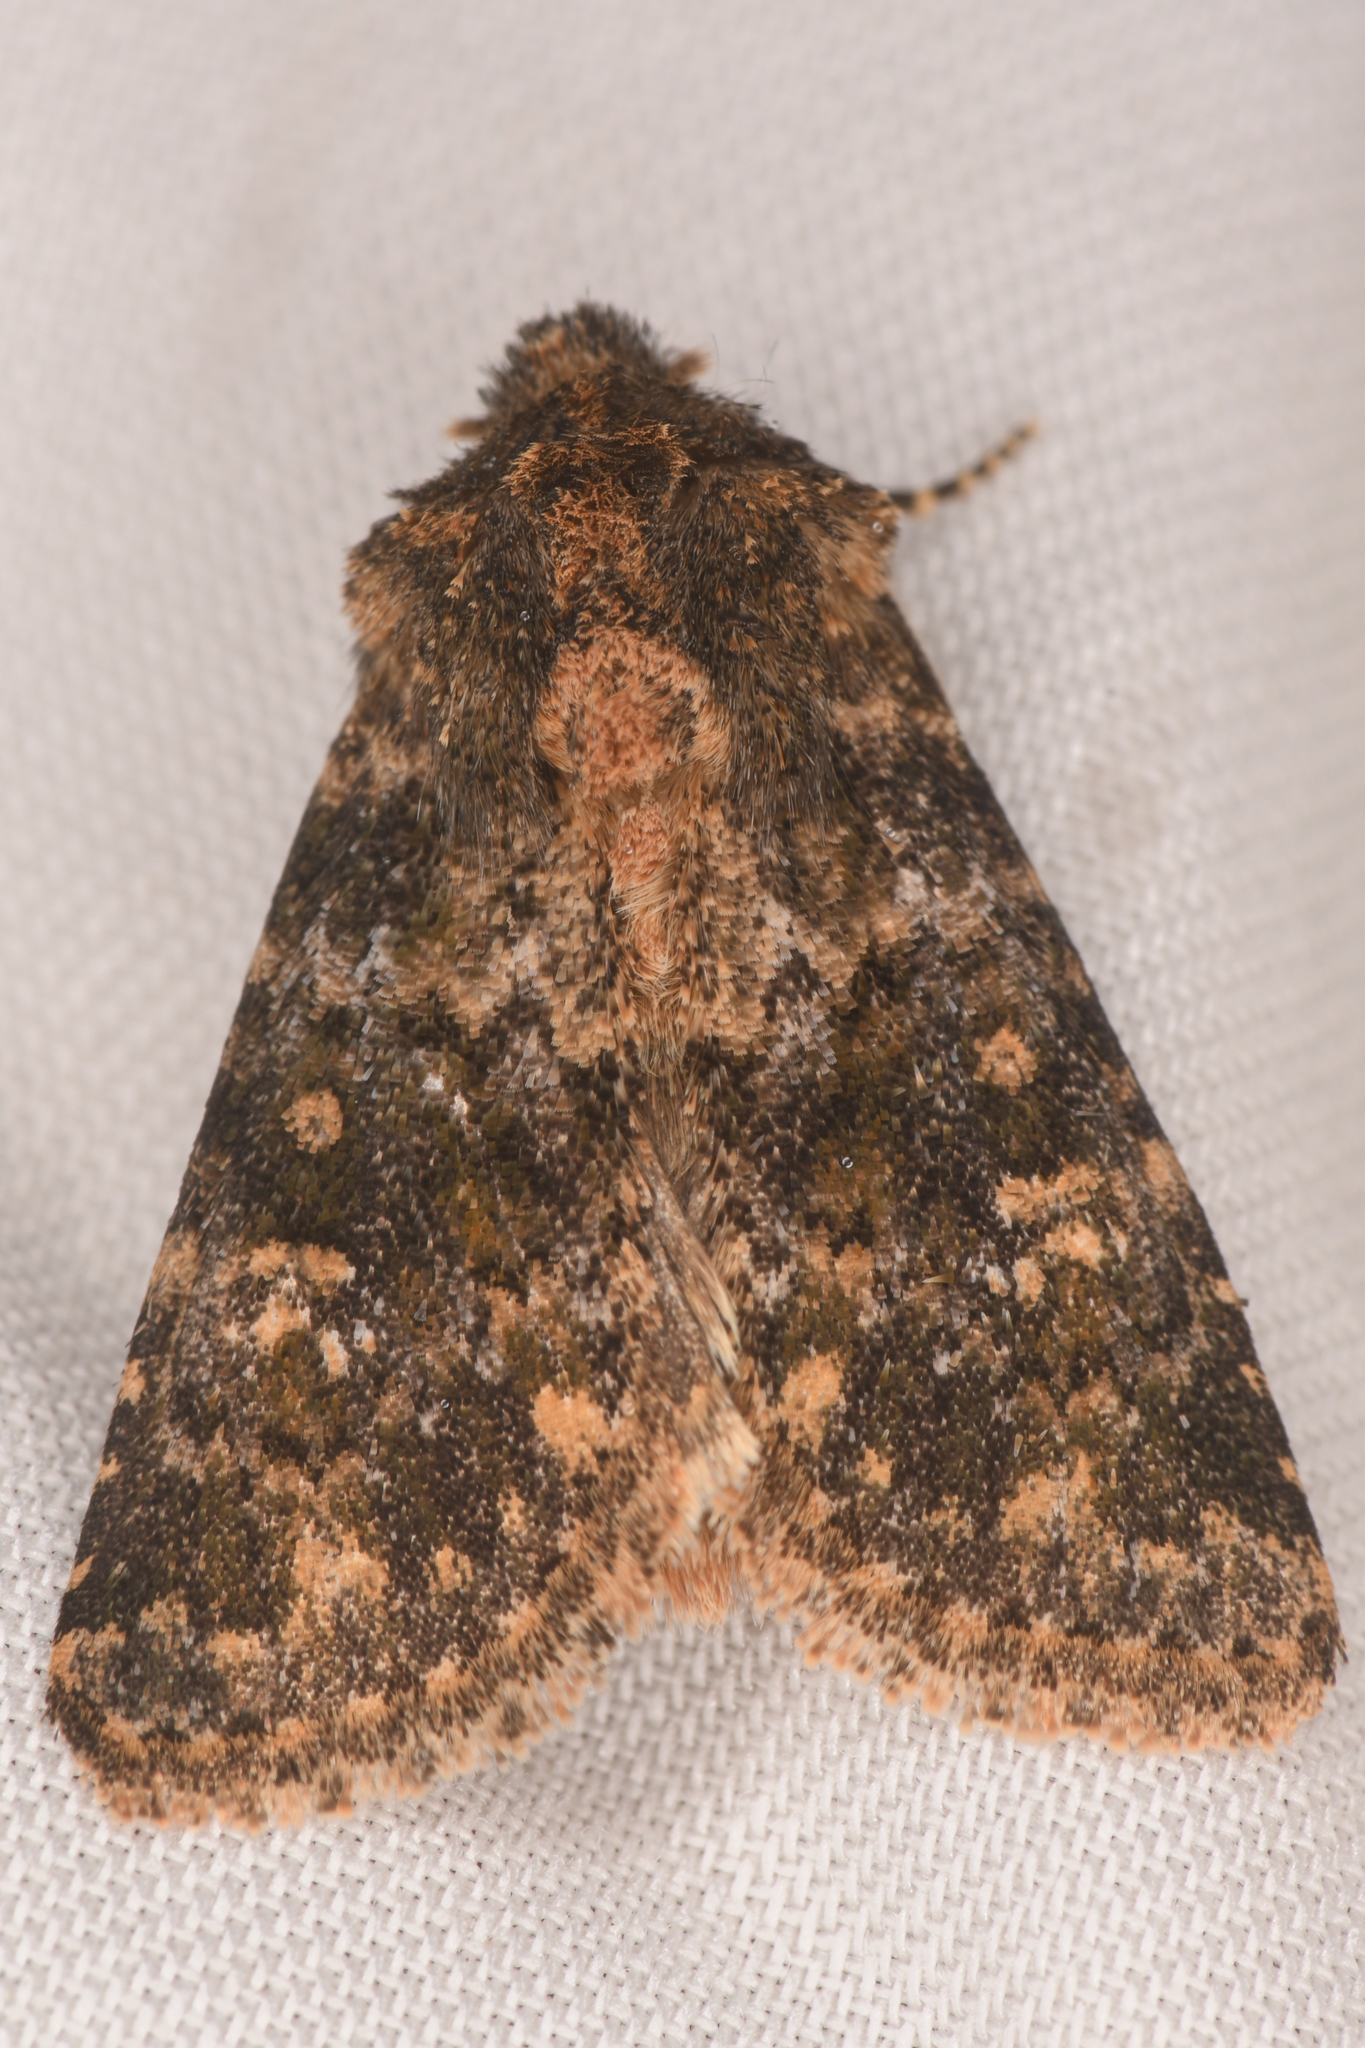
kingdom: Animalia
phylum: Arthropoda
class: Insecta
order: Lepidoptera
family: Noctuidae
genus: Pseudobryomima
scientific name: Pseudobryomima fallax
